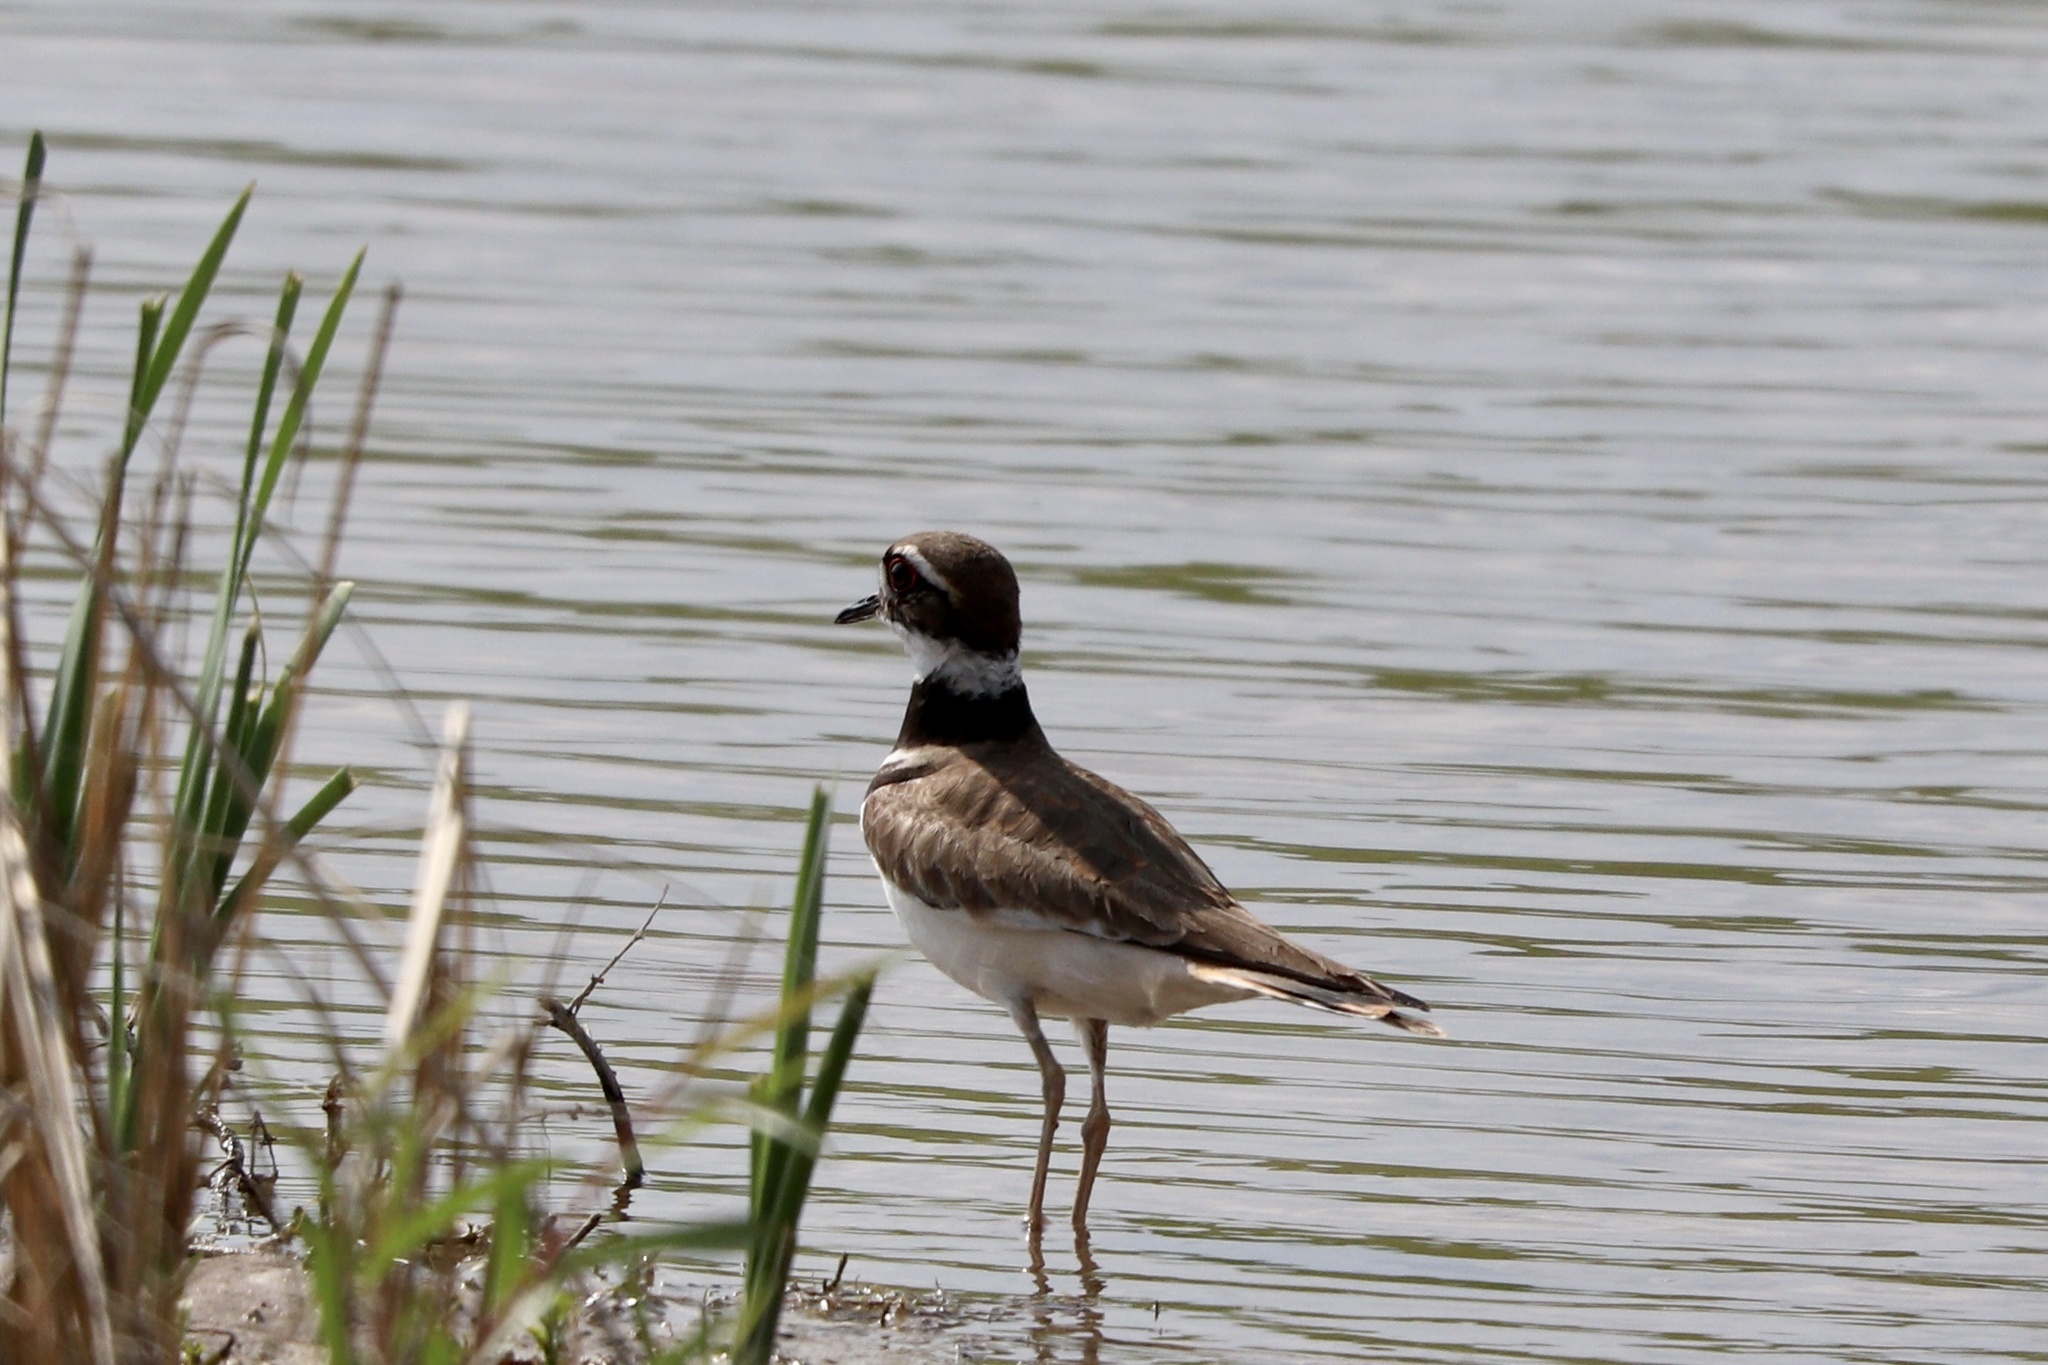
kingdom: Animalia
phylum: Chordata
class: Aves
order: Charadriiformes
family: Charadriidae
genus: Charadrius
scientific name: Charadrius vociferus
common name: Killdeer
